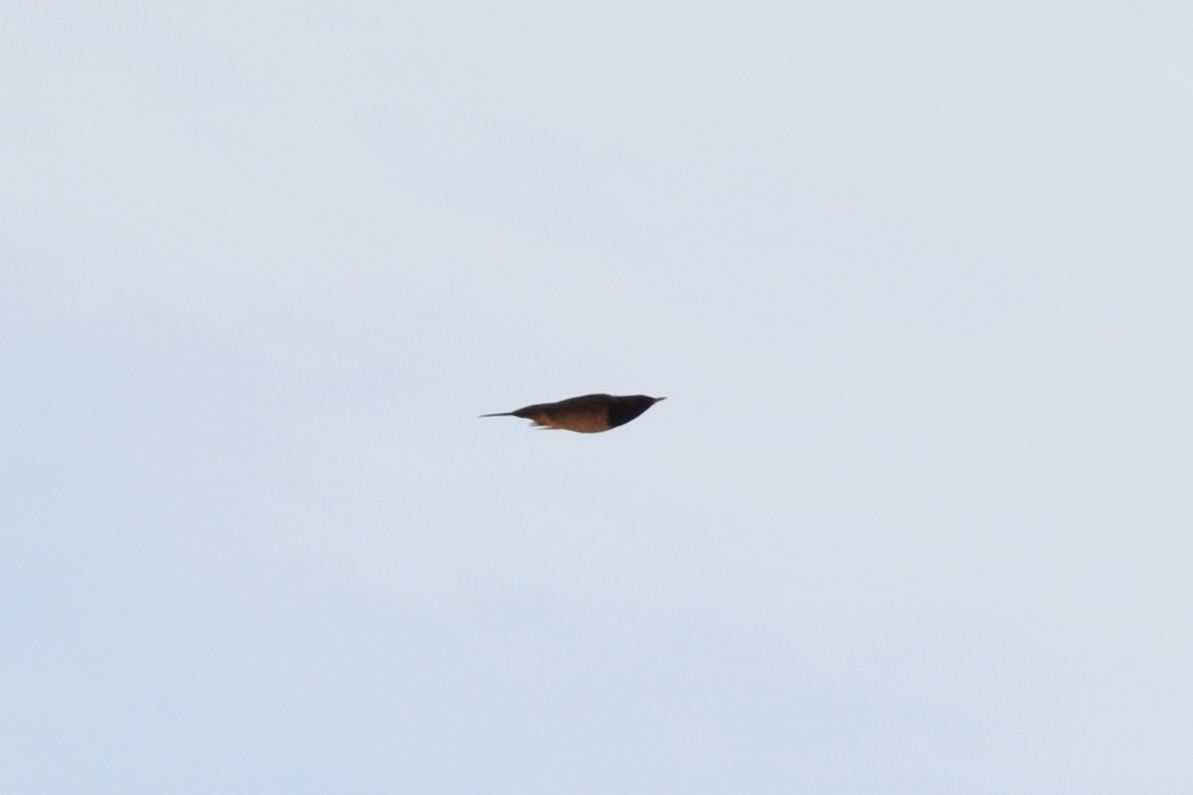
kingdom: Animalia
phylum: Chordata
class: Aves
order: Passeriformes
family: Turdidae
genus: Turdus
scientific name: Turdus atrogularis
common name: Black-throated thrush
